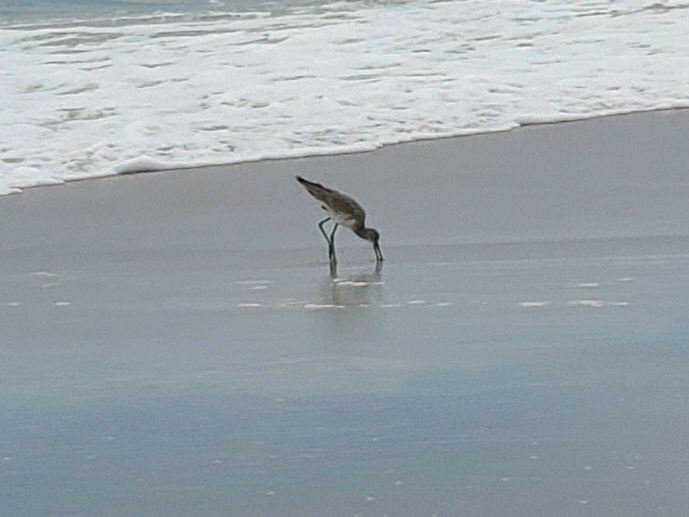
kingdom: Animalia
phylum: Chordata
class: Aves
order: Charadriiformes
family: Scolopacidae
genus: Tringa
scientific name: Tringa semipalmata
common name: Willet
